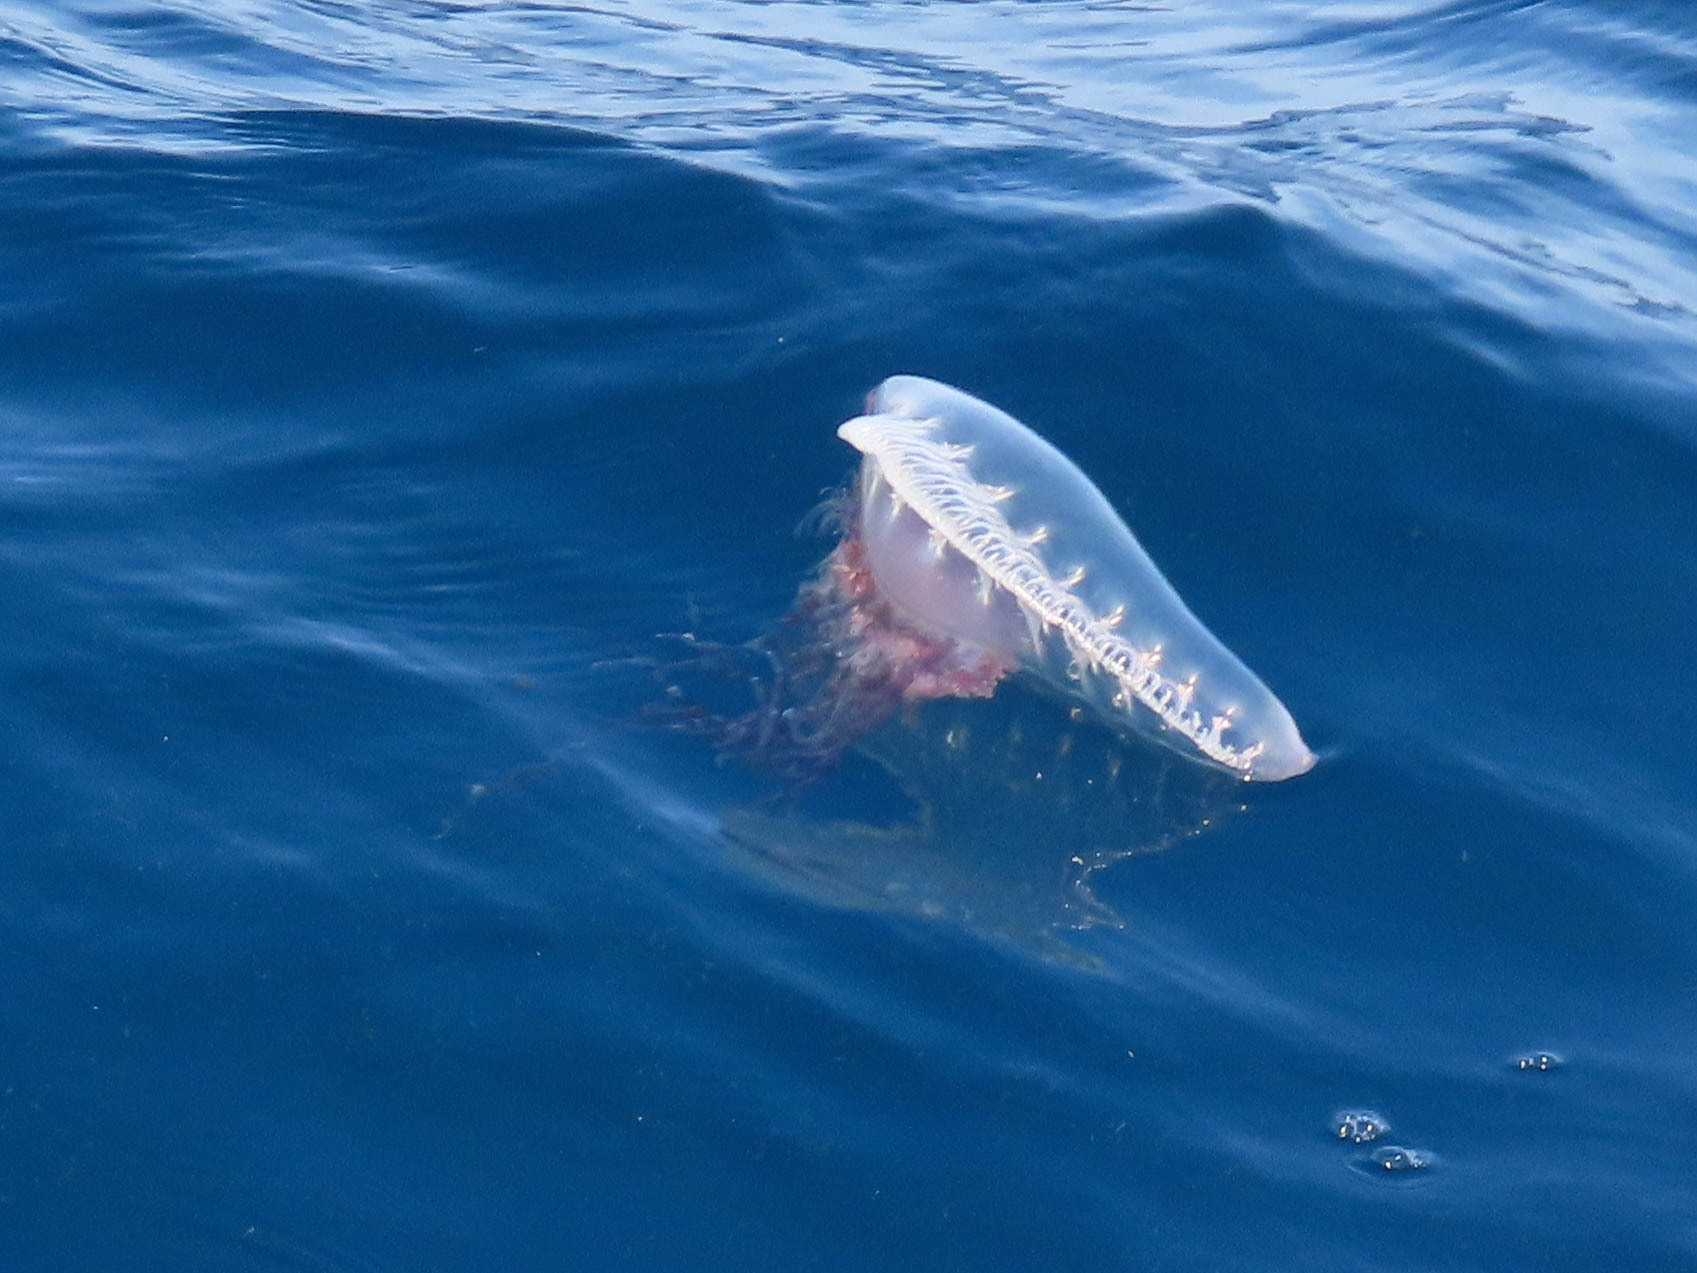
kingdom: Animalia
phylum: Cnidaria
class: Hydrozoa
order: Siphonophorae
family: Physaliidae
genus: Physalia
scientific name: Physalia physalis
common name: Portuguese man-of-war
